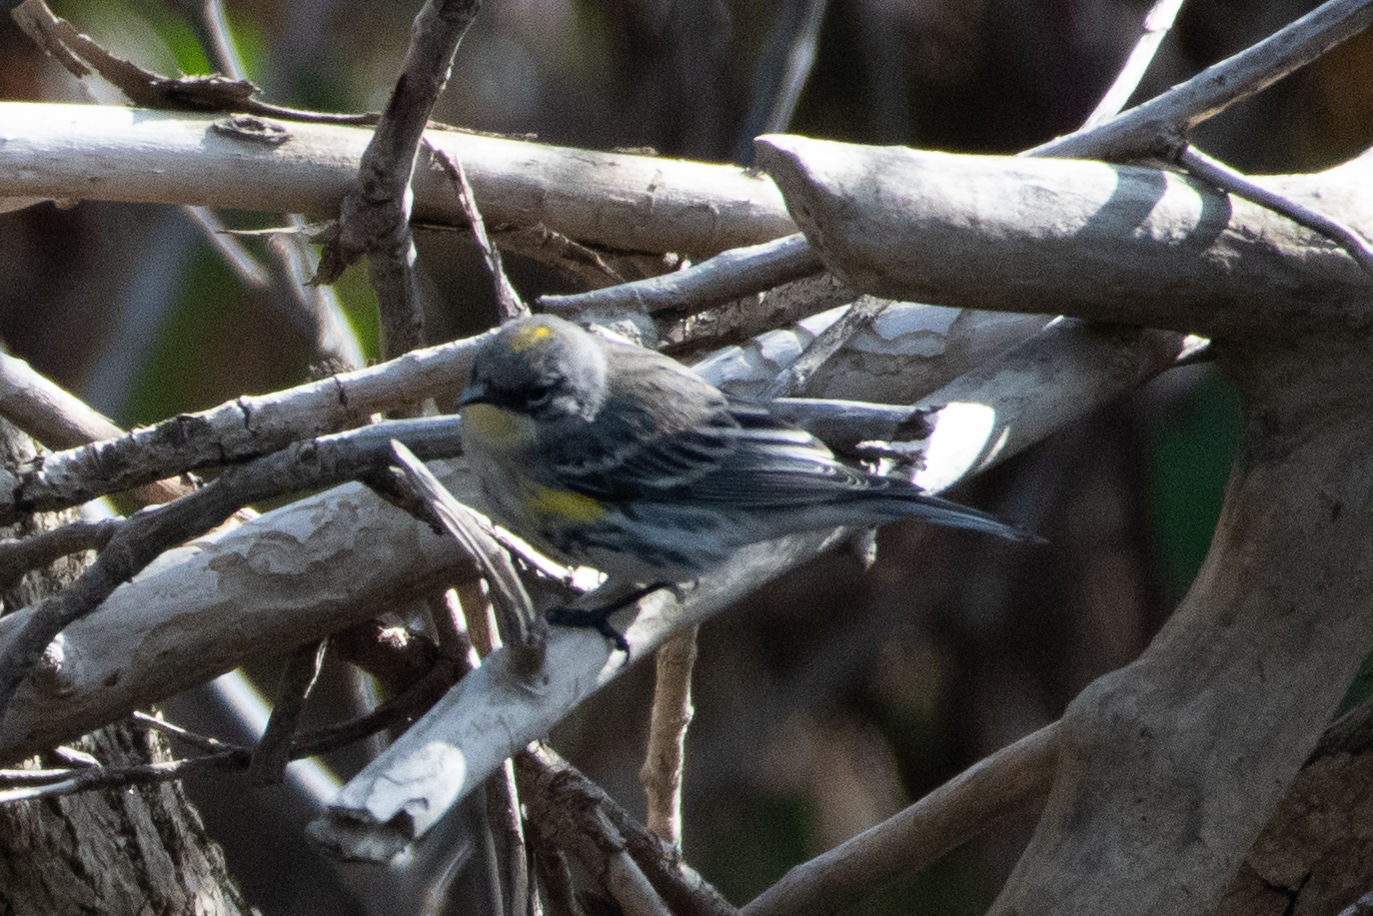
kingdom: Animalia
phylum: Chordata
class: Aves
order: Passeriformes
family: Parulidae
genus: Setophaga
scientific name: Setophaga coronata
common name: Myrtle warbler
